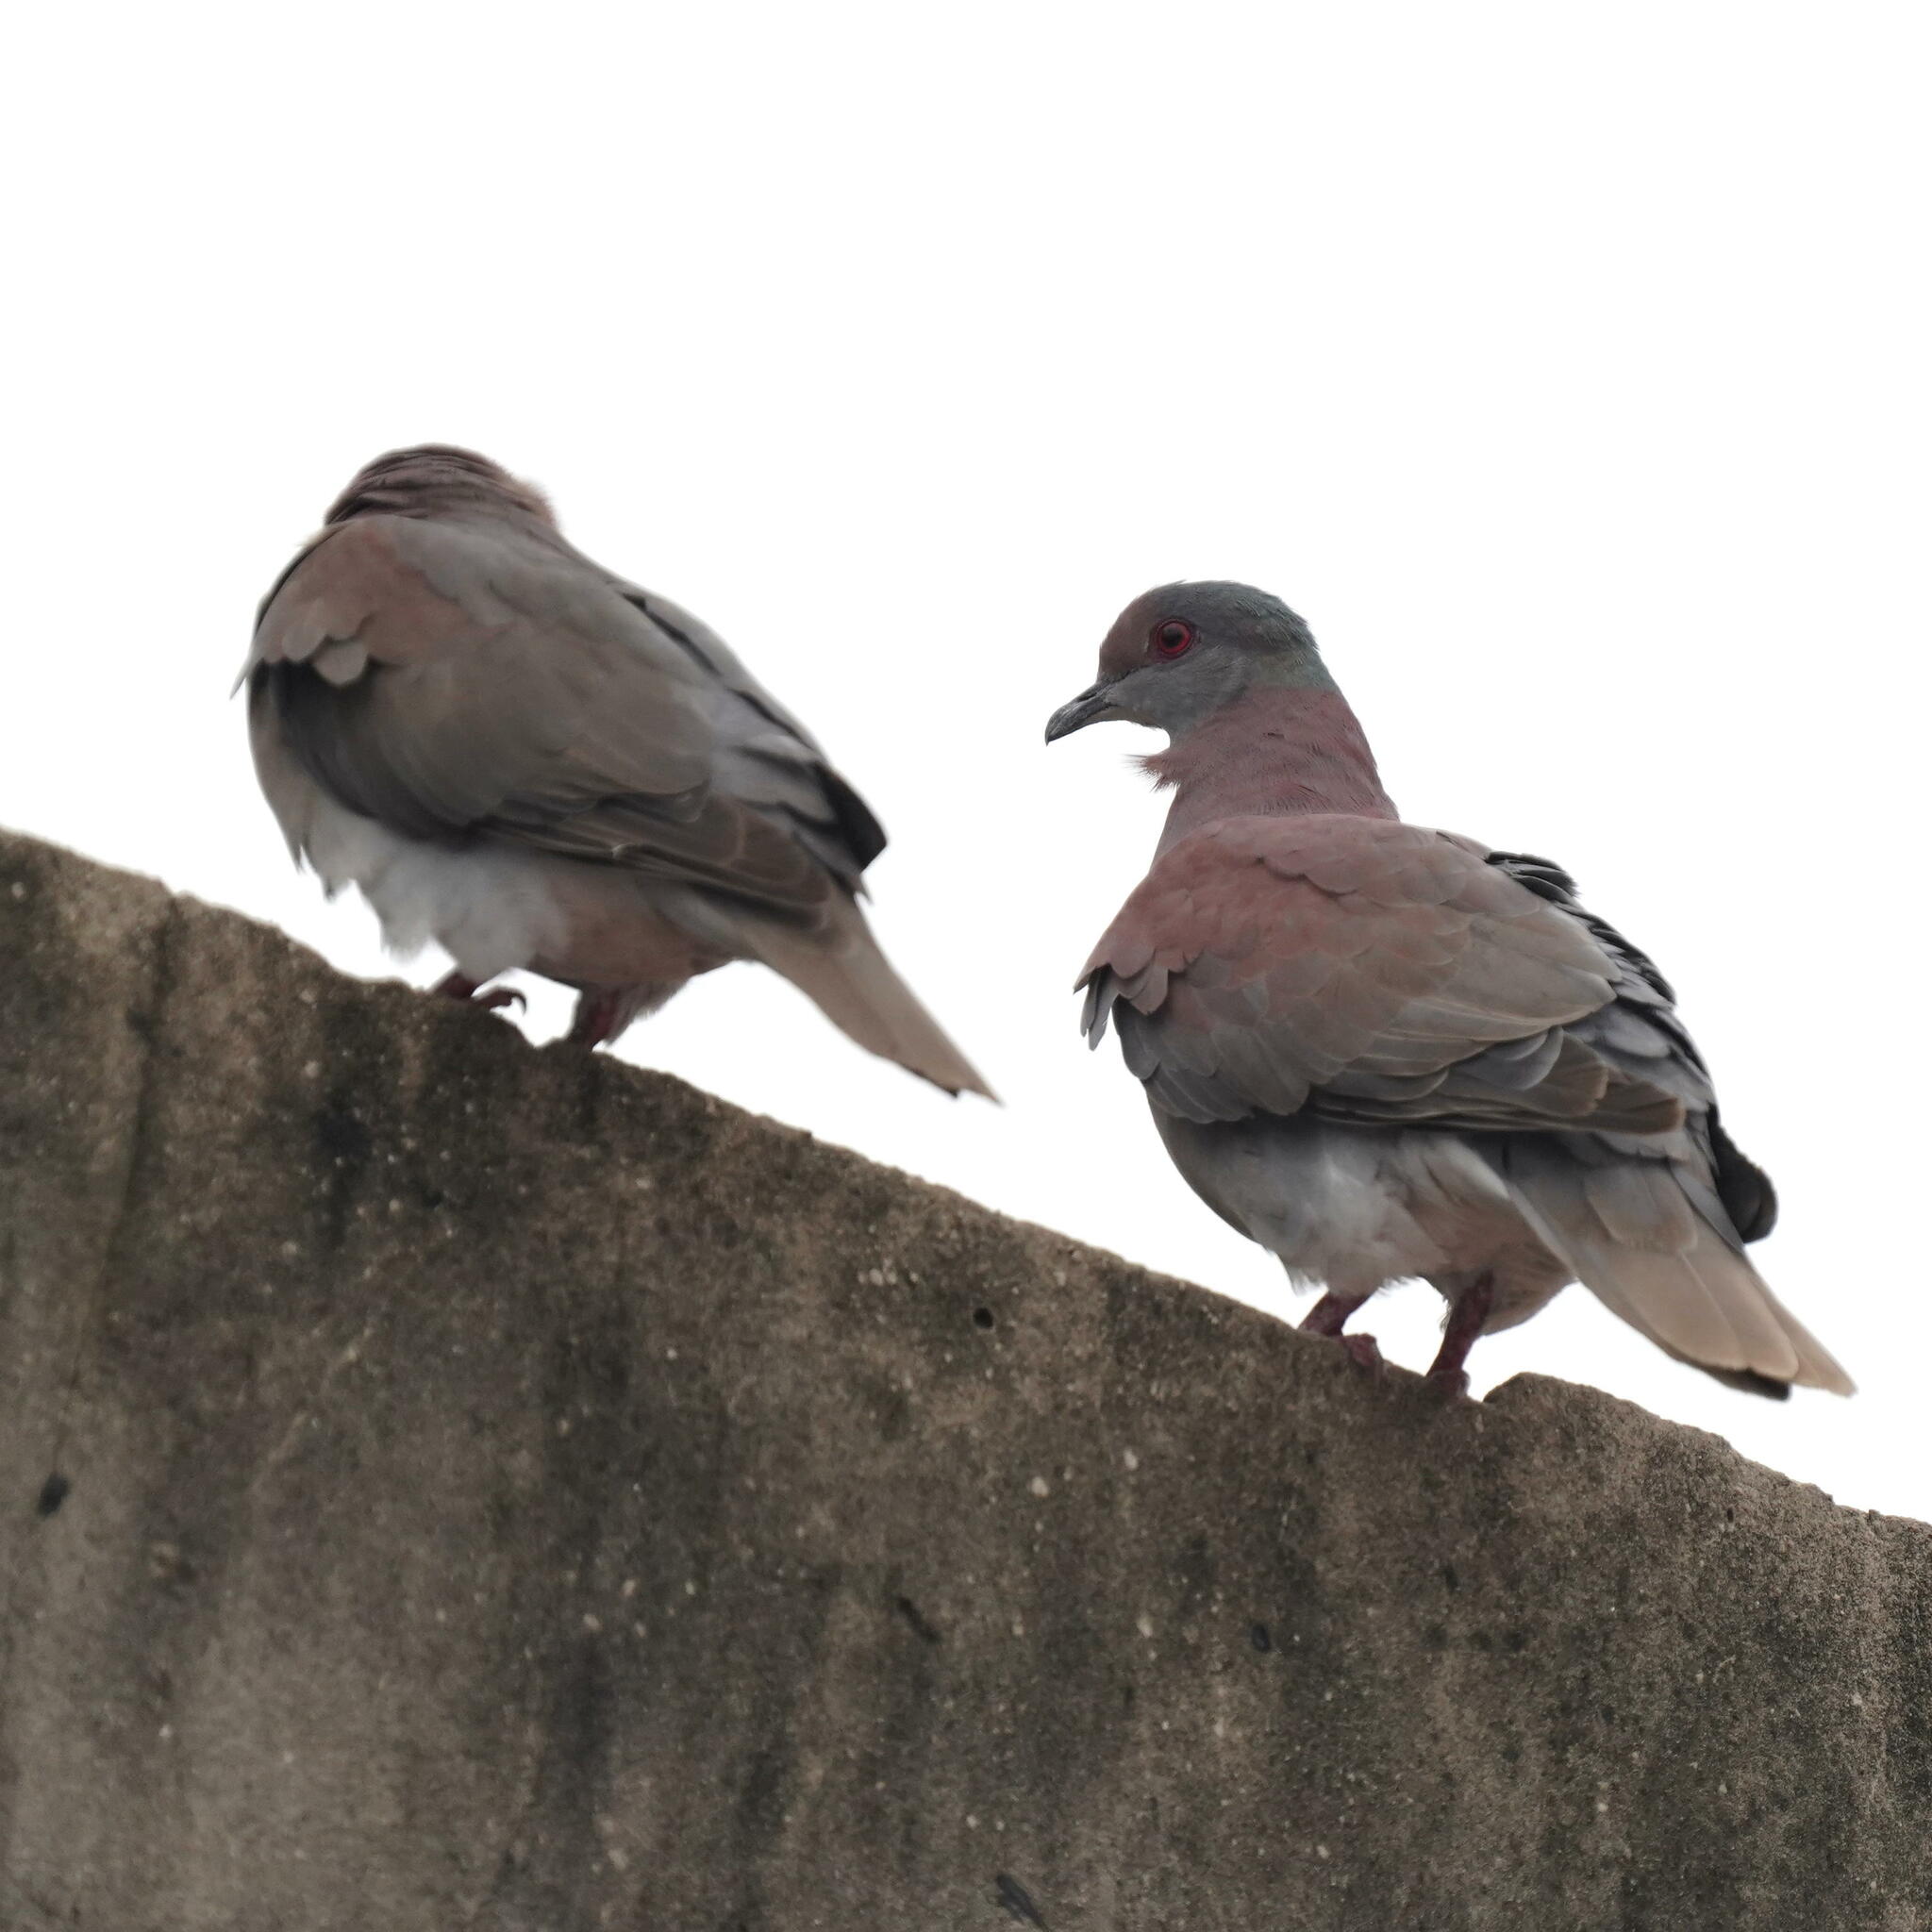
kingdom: Animalia
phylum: Chordata
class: Aves
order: Columbiformes
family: Columbidae
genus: Patagioenas
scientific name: Patagioenas cayennensis
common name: Pale-vented pigeon
